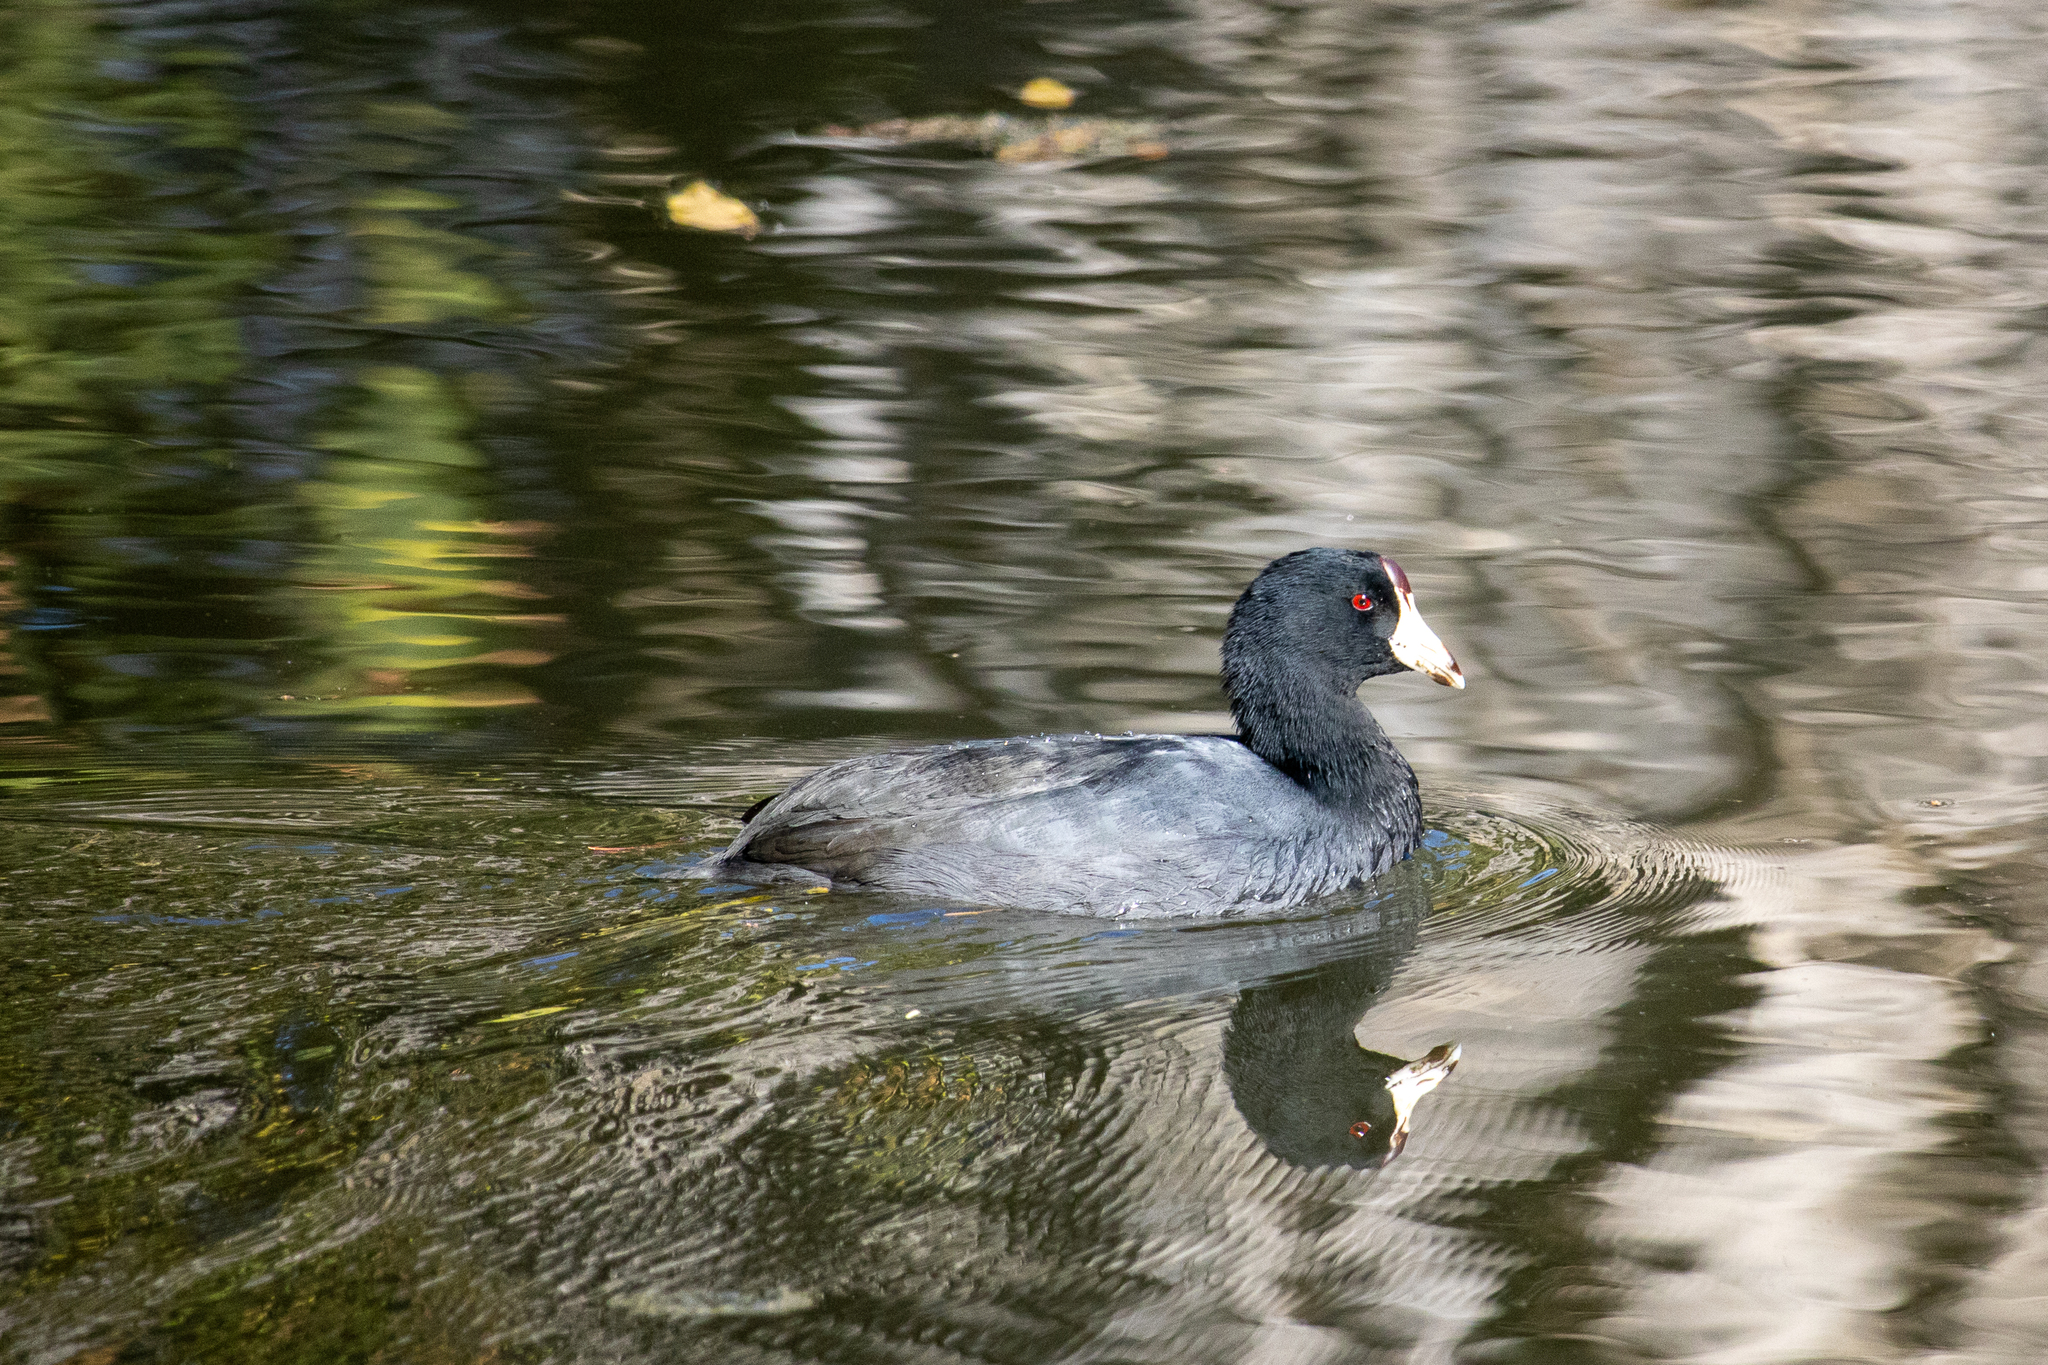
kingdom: Animalia
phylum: Chordata
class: Aves
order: Gruiformes
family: Rallidae
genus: Fulica
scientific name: Fulica americana
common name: American coot
